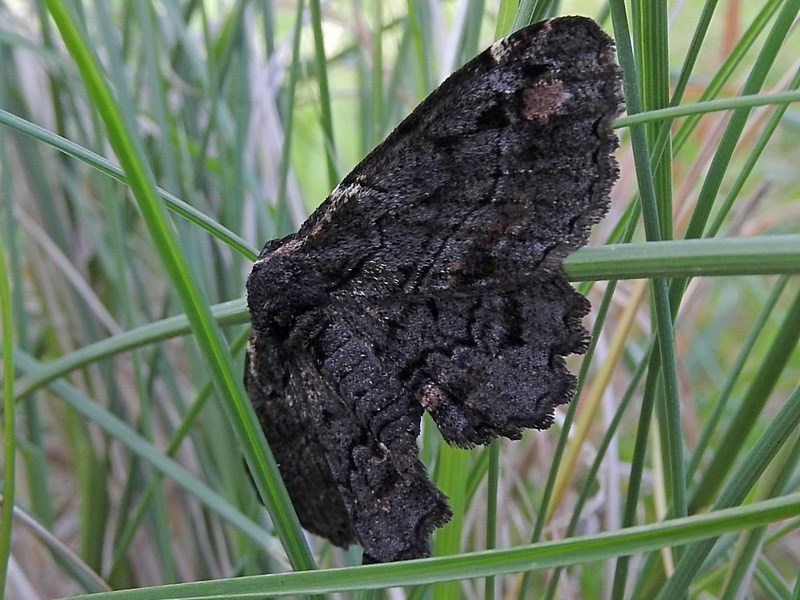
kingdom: Animalia
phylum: Arthropoda
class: Insecta
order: Lepidoptera
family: Geometridae
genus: Pholodes
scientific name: Pholodes sinistraria
